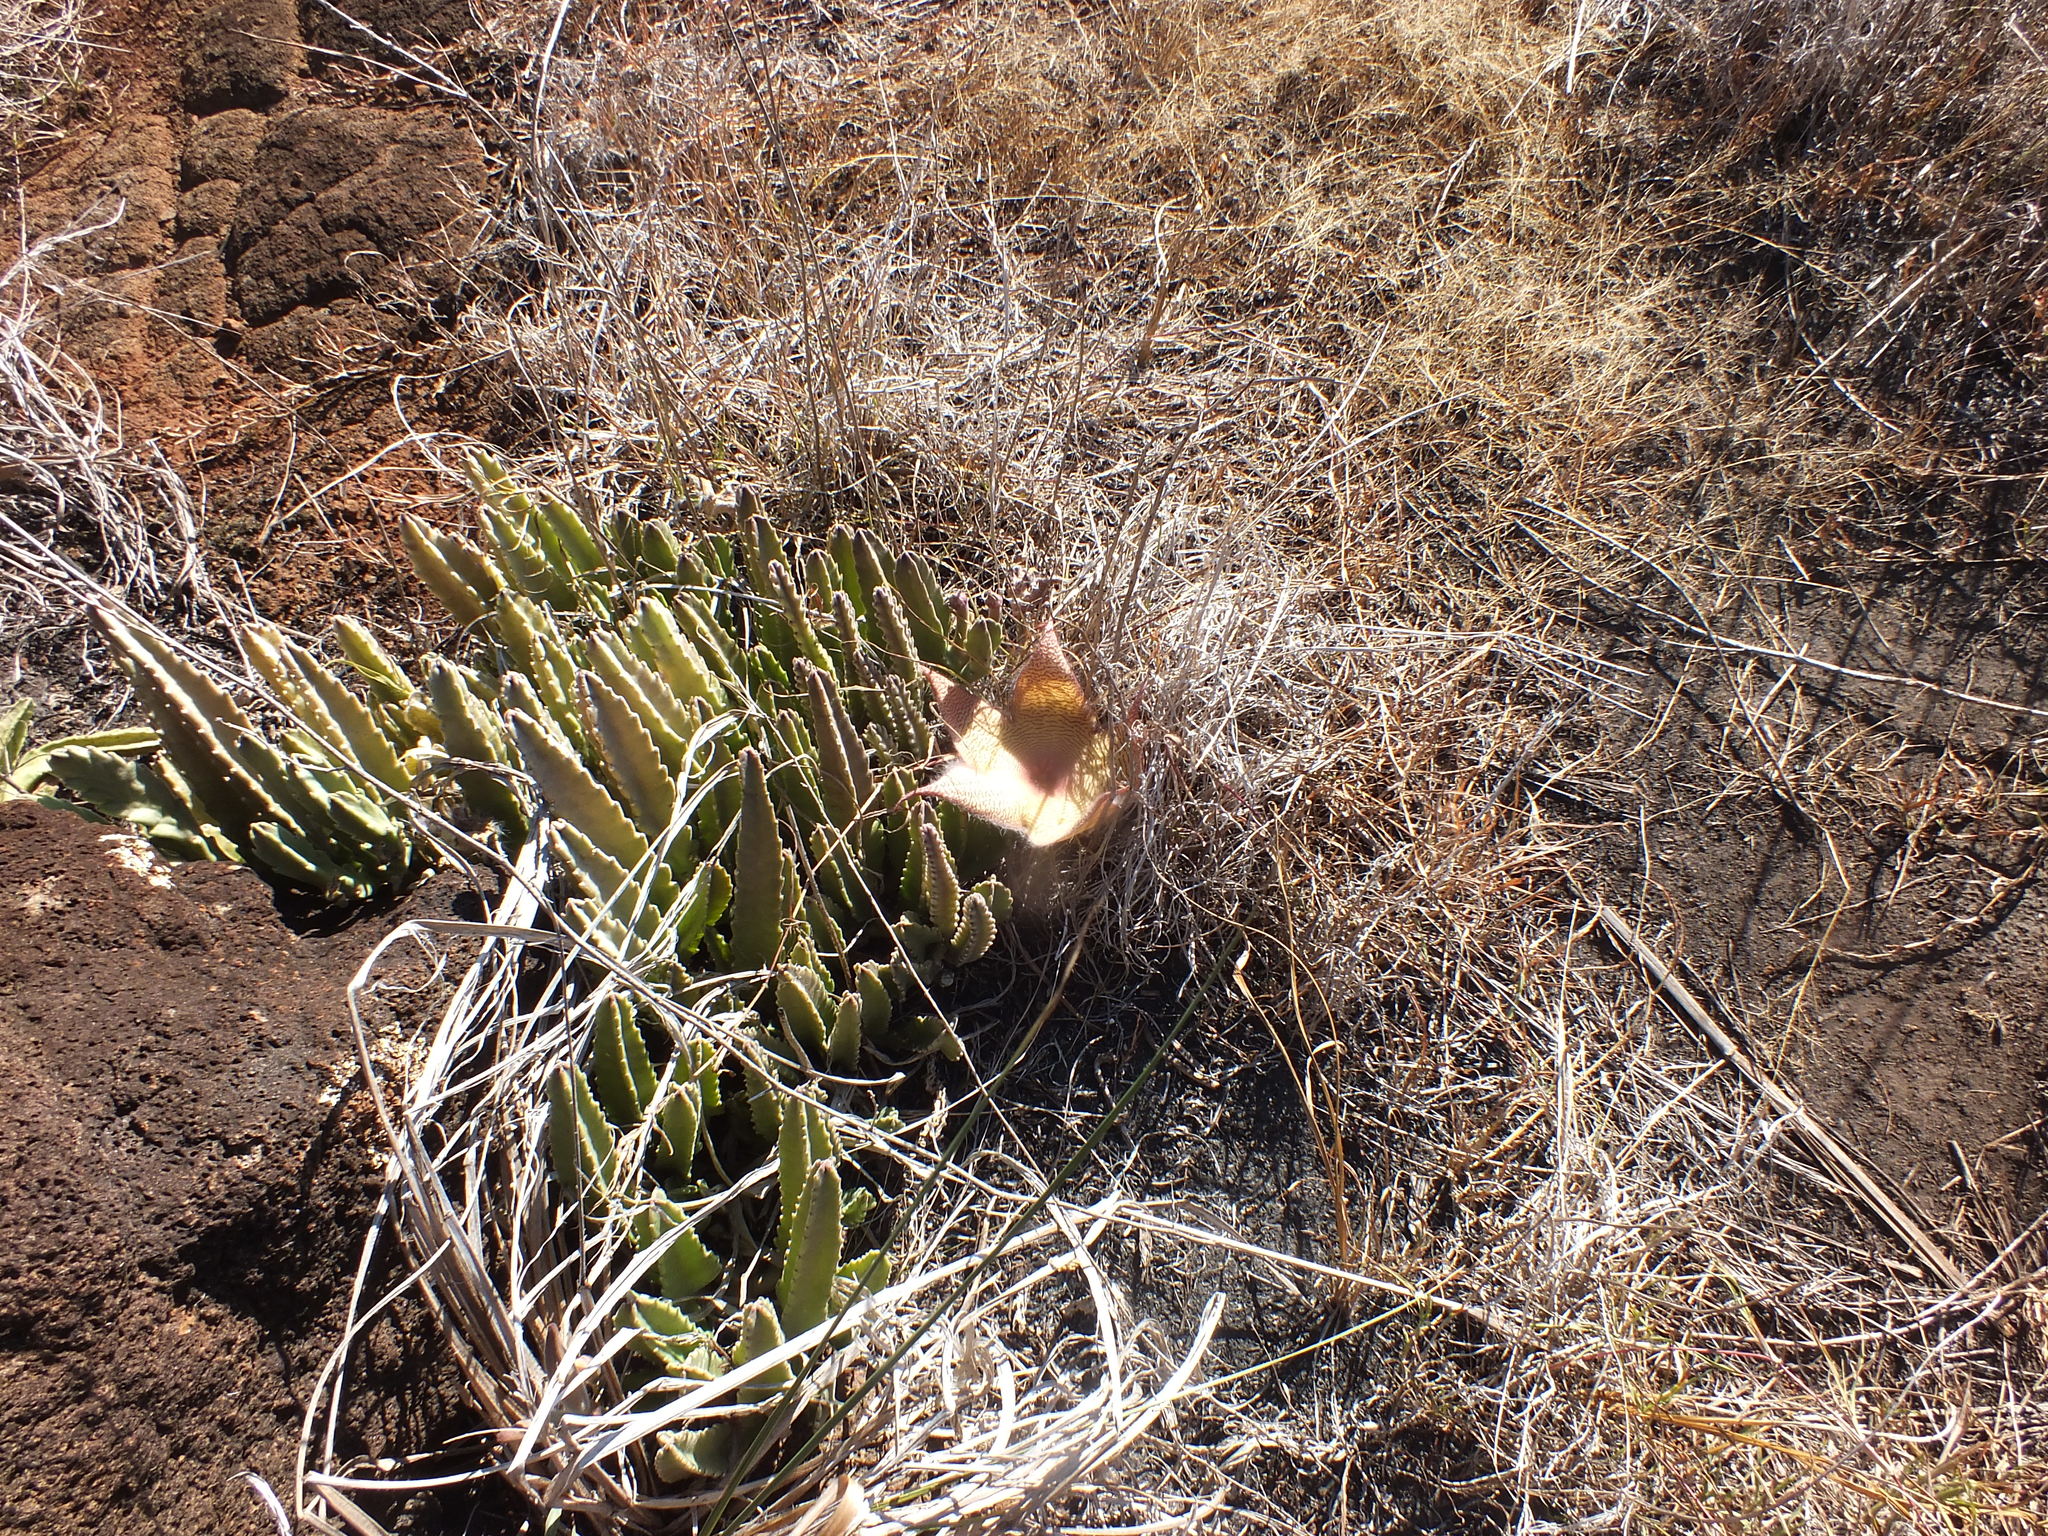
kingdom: Plantae
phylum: Tracheophyta
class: Magnoliopsida
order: Gentianales
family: Apocynaceae
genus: Ceropegia
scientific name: Ceropegia gigantea
